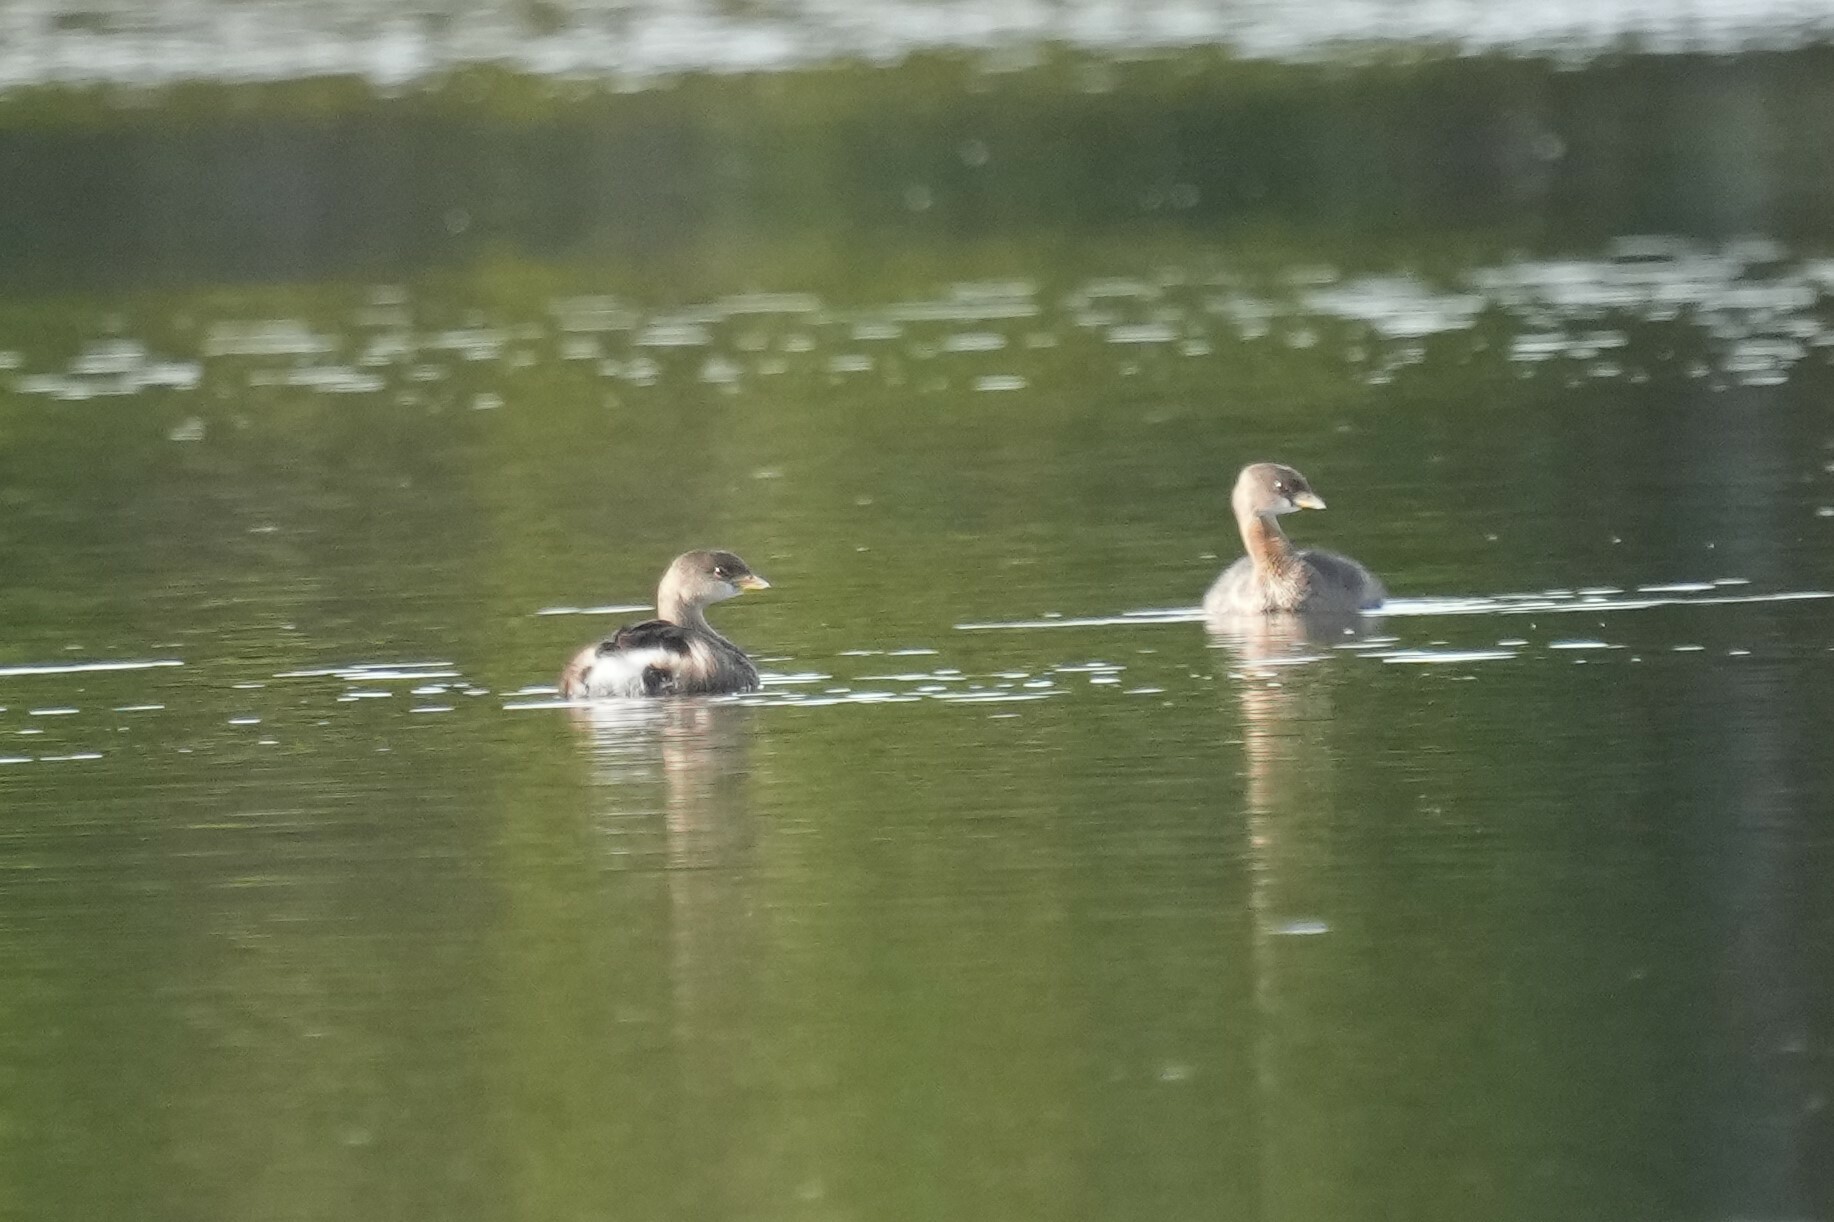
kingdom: Animalia
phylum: Chordata
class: Aves
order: Podicipediformes
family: Podicipedidae
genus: Podilymbus
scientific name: Podilymbus podiceps
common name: Pied-billed grebe
